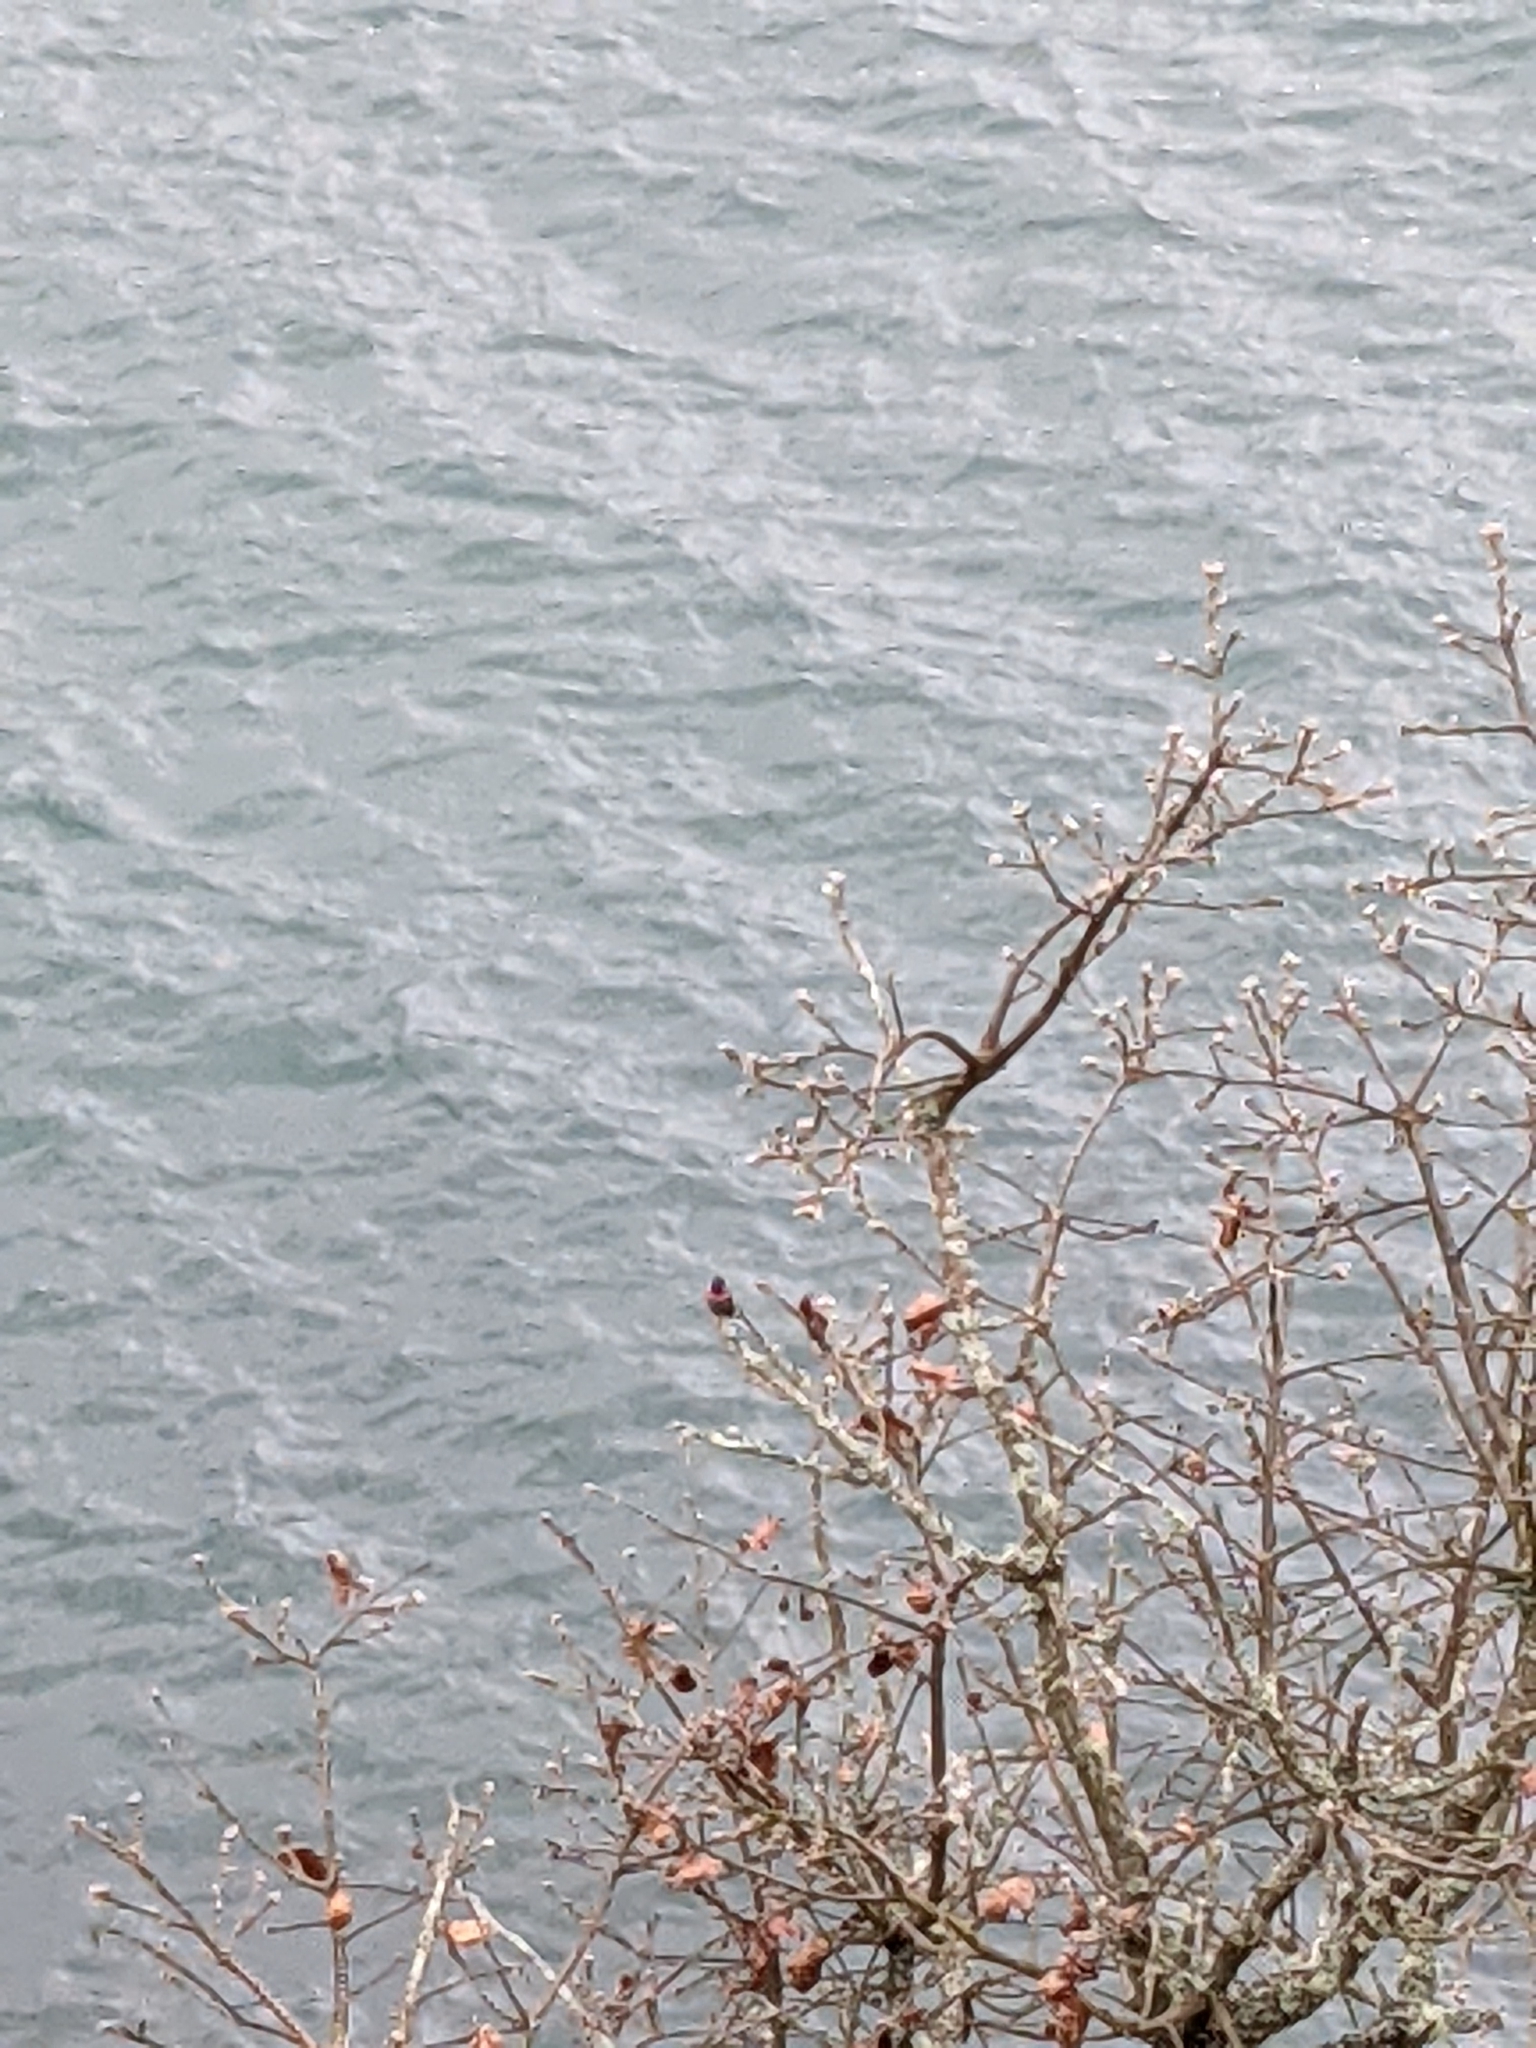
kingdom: Animalia
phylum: Chordata
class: Aves
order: Apodiformes
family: Trochilidae
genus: Calypte
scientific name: Calypte anna
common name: Anna's hummingbird
